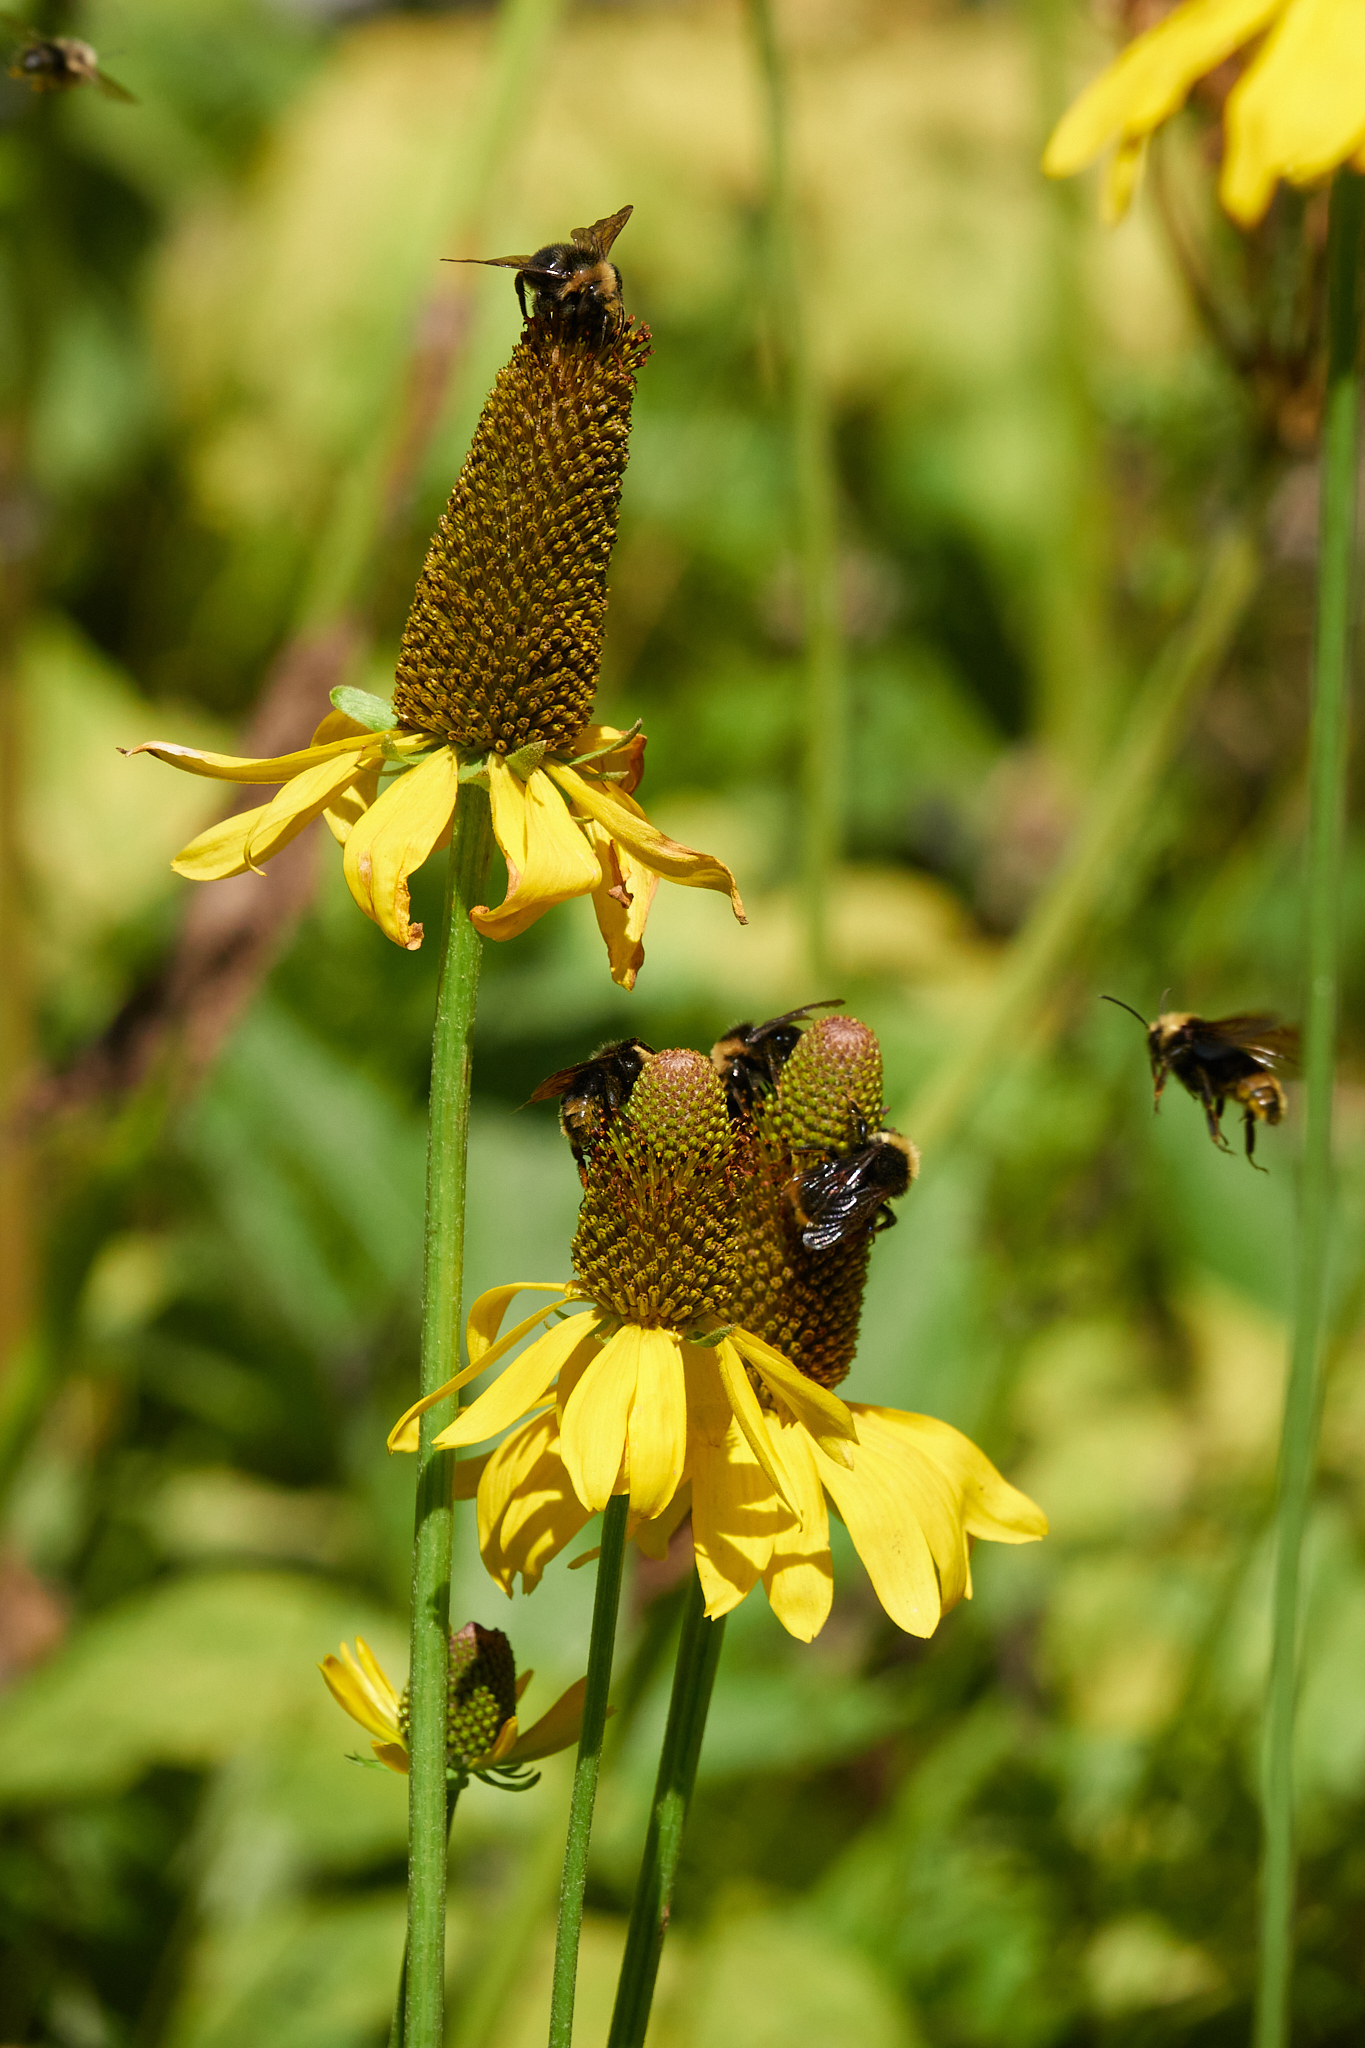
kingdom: Plantae
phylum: Tracheophyta
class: Magnoliopsida
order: Asterales
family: Asteraceae
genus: Rudbeckia
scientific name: Rudbeckia californica
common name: California coneflower
